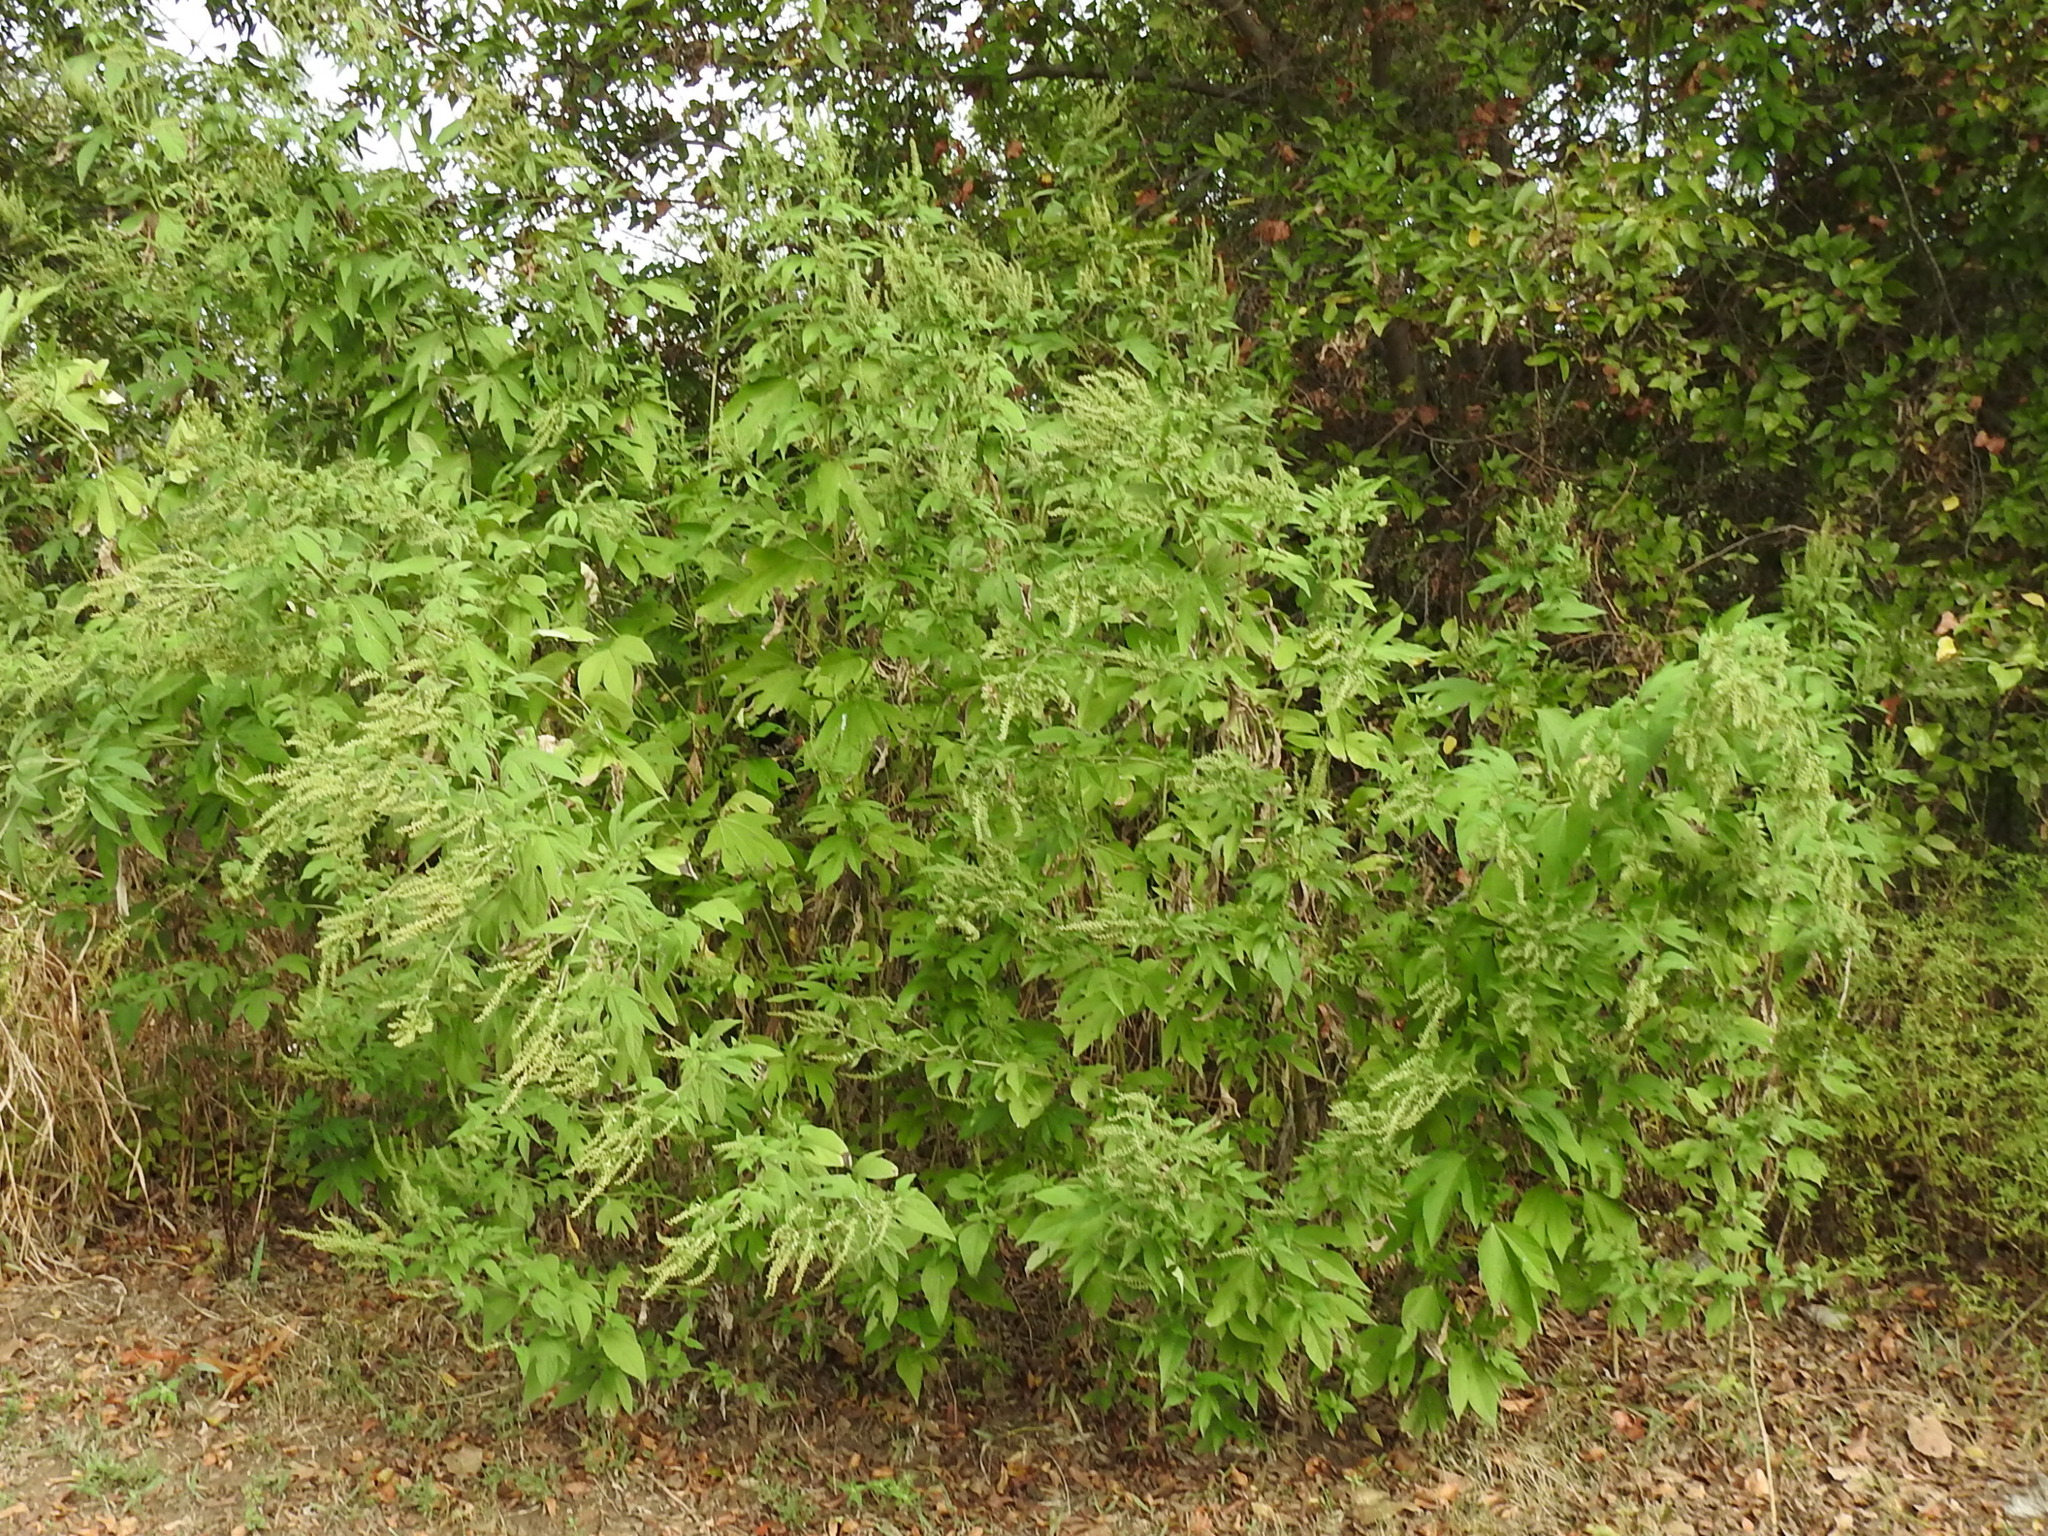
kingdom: Plantae
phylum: Tracheophyta
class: Magnoliopsida
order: Asterales
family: Asteraceae
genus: Ambrosia
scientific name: Ambrosia trifida
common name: Giant ragweed
